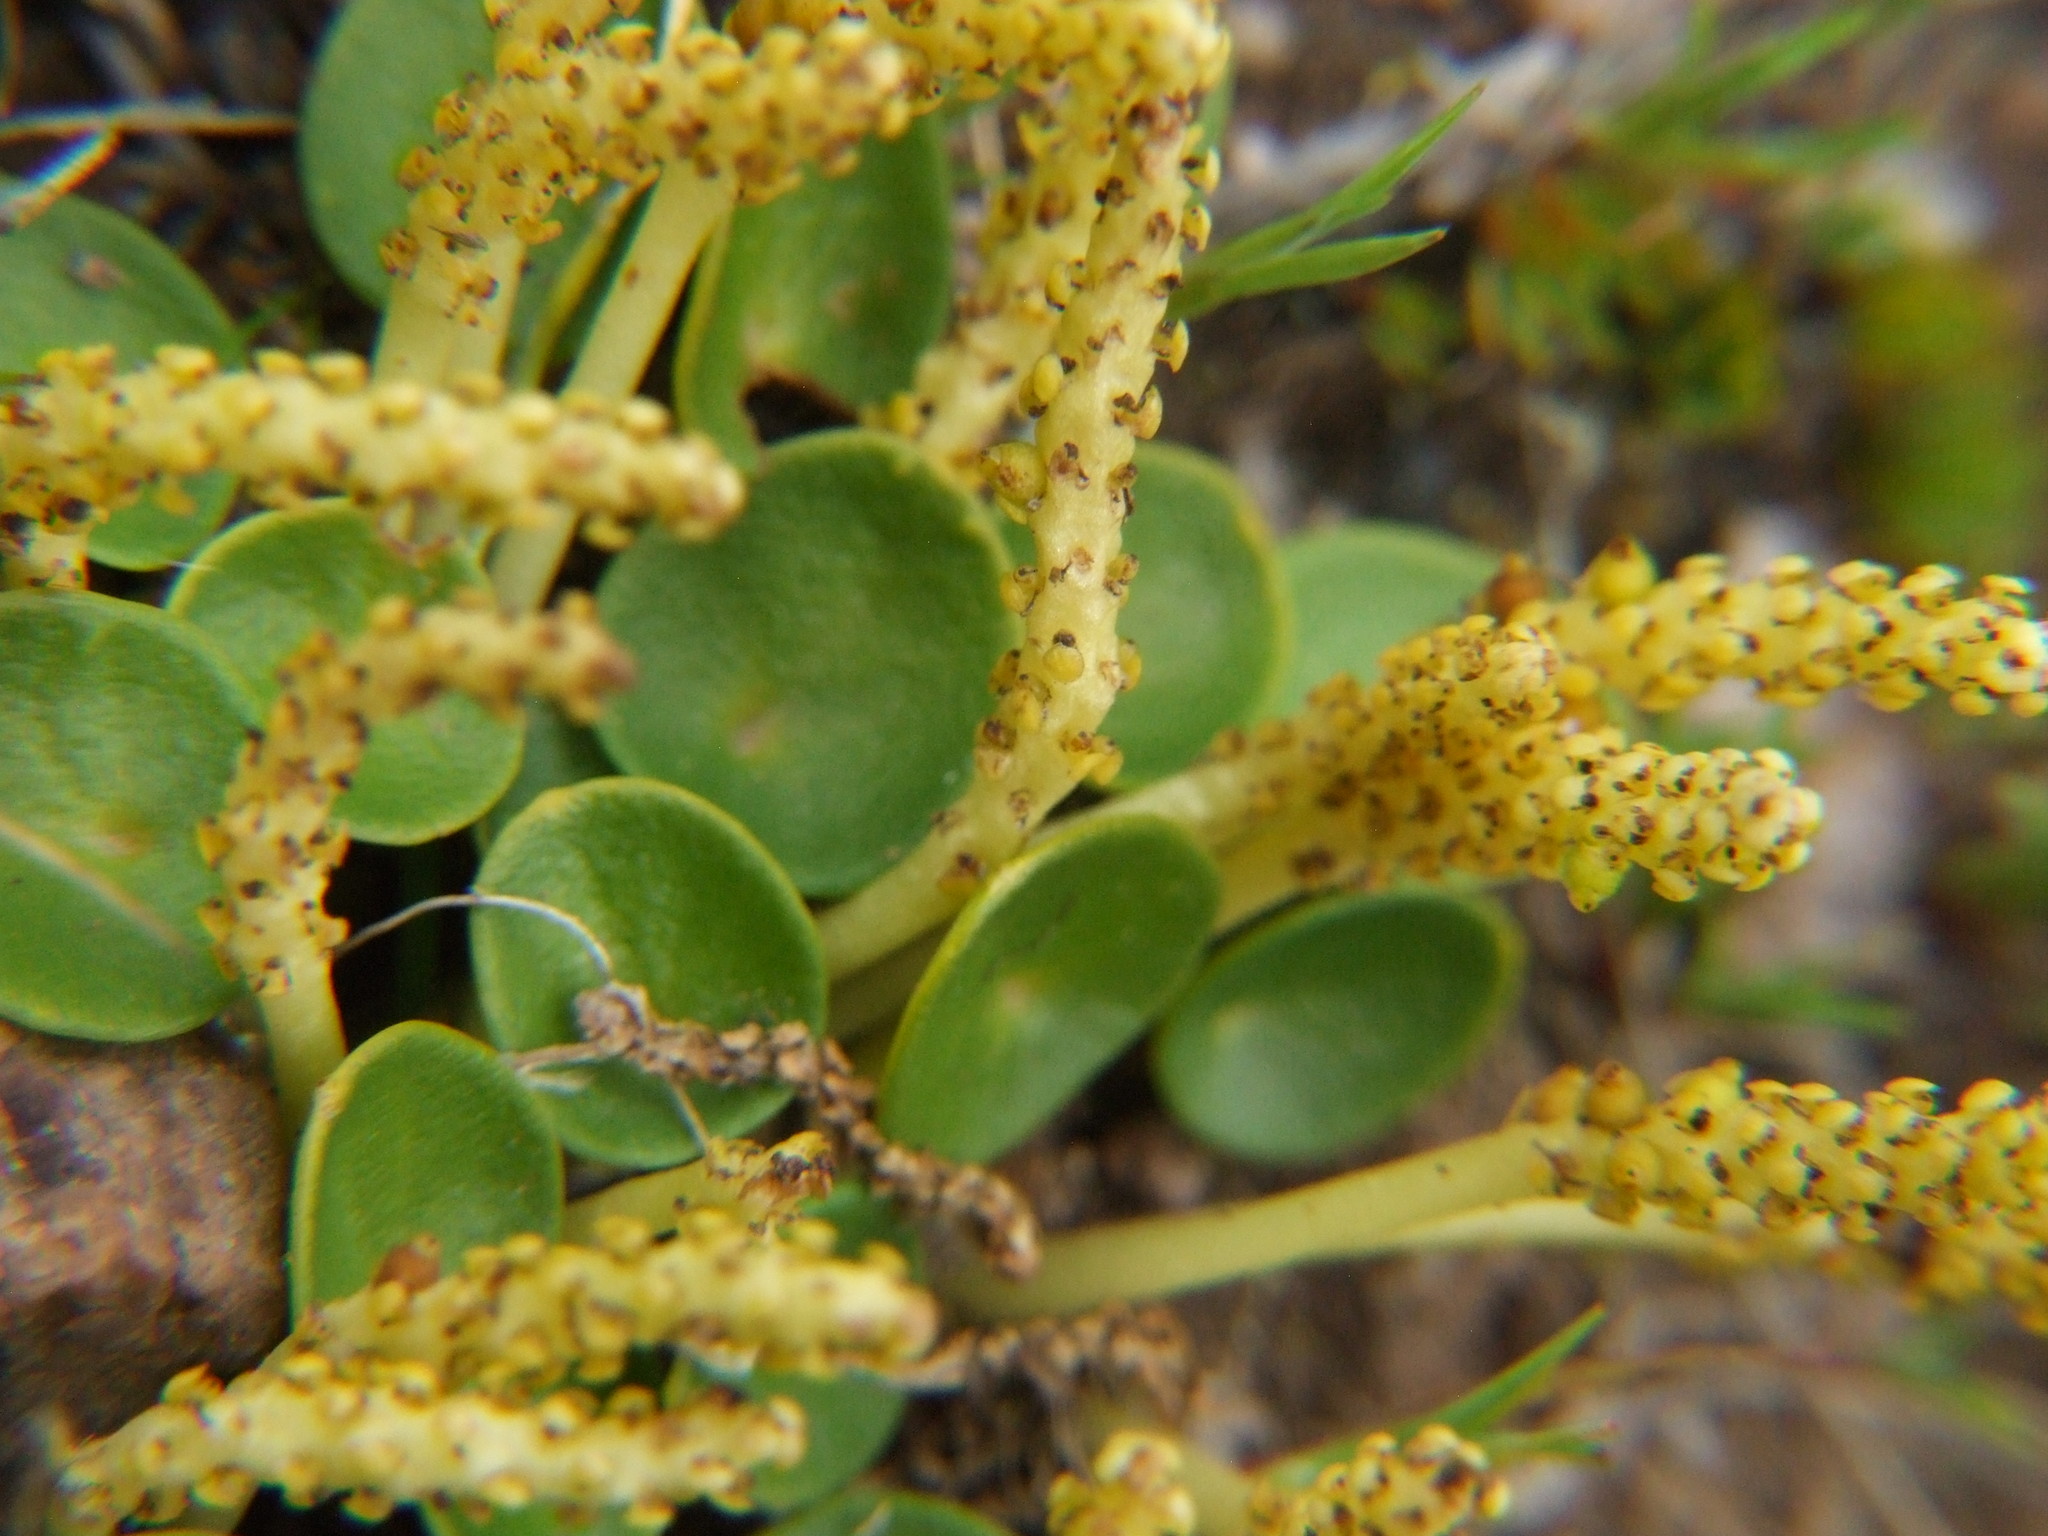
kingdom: Plantae
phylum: Tracheophyta
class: Magnoliopsida
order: Piperales
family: Piperaceae
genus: Peperomia
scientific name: Peperomia verruculosa
